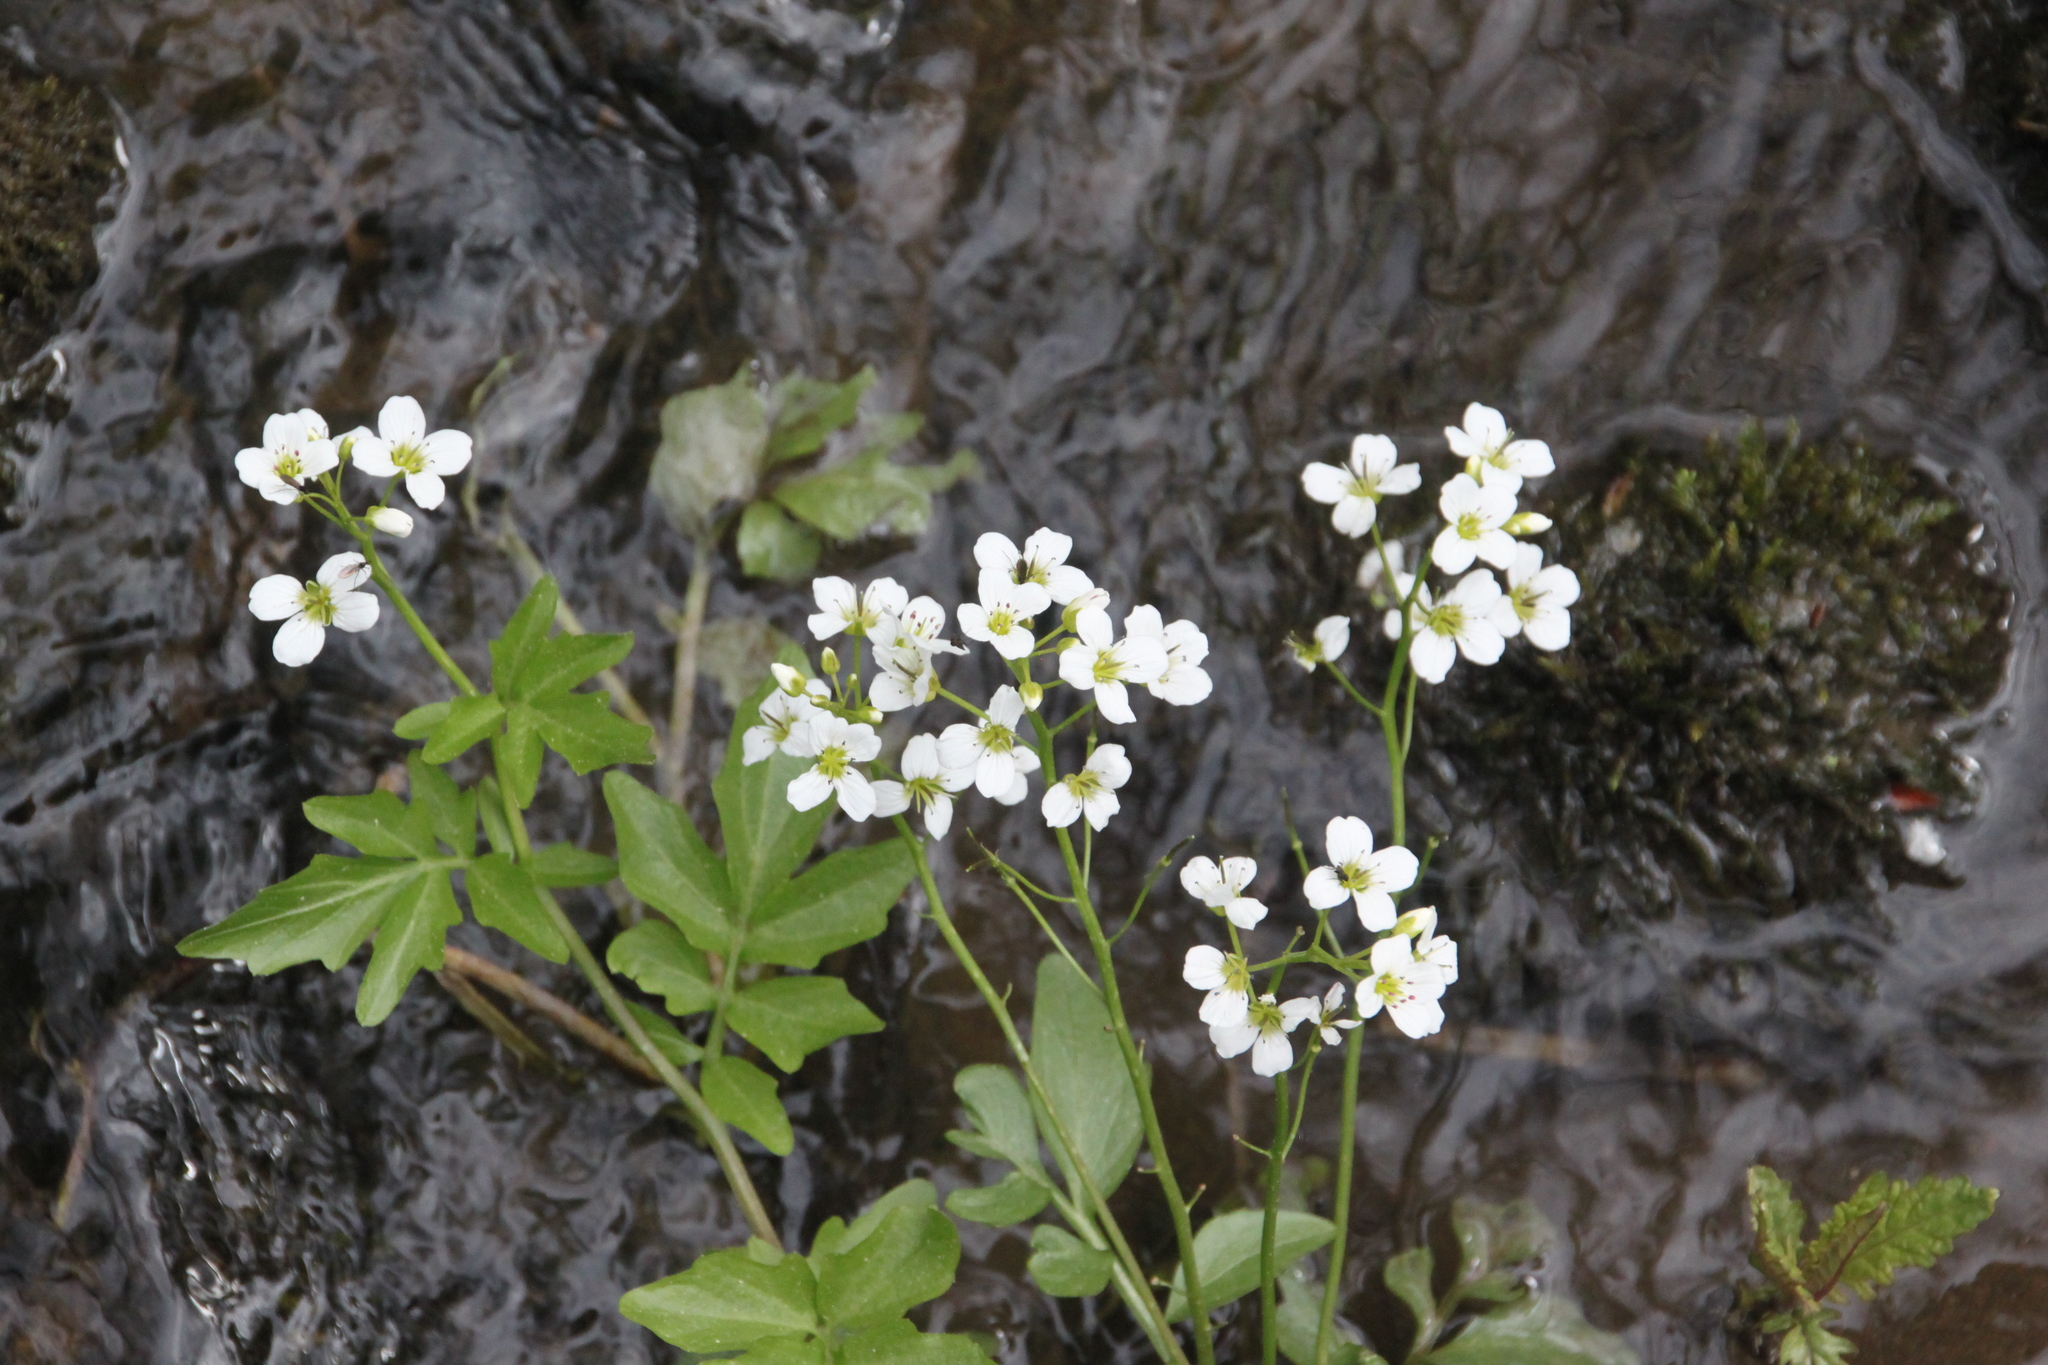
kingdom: Plantae
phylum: Tracheophyta
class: Magnoliopsida
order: Brassicales
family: Brassicaceae
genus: Cardamine
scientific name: Cardamine amara
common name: Large bitter-cress
